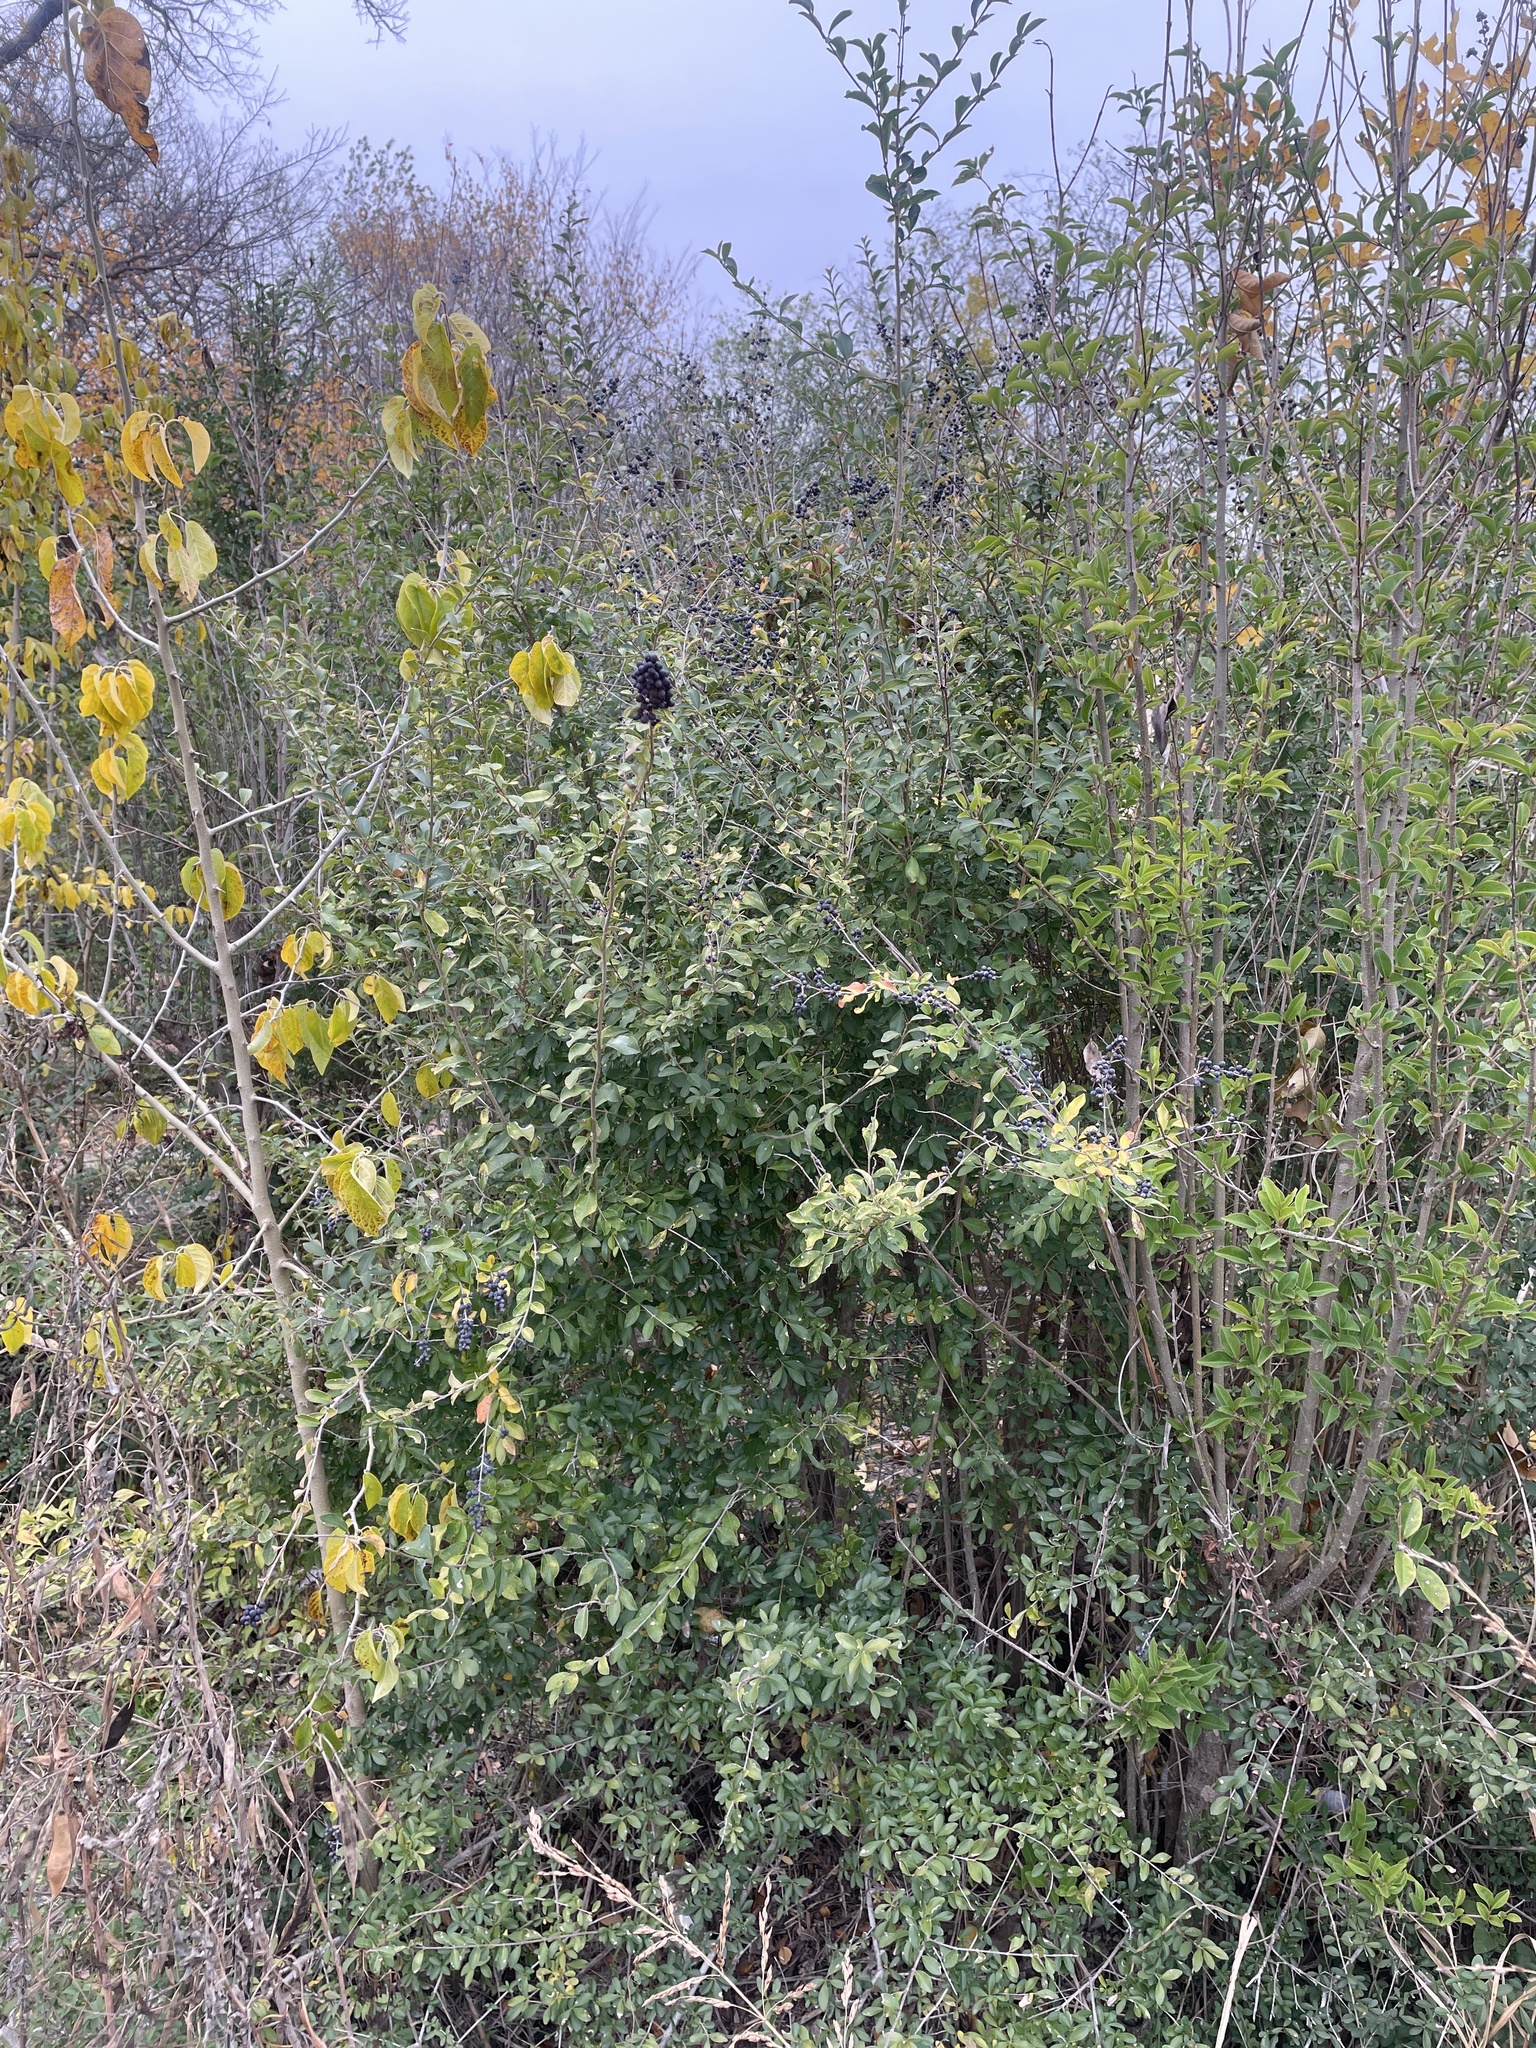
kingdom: Plantae
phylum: Tracheophyta
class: Magnoliopsida
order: Lamiales
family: Oleaceae
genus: Ligustrum
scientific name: Ligustrum quihoui
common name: Waxyleaf privet
